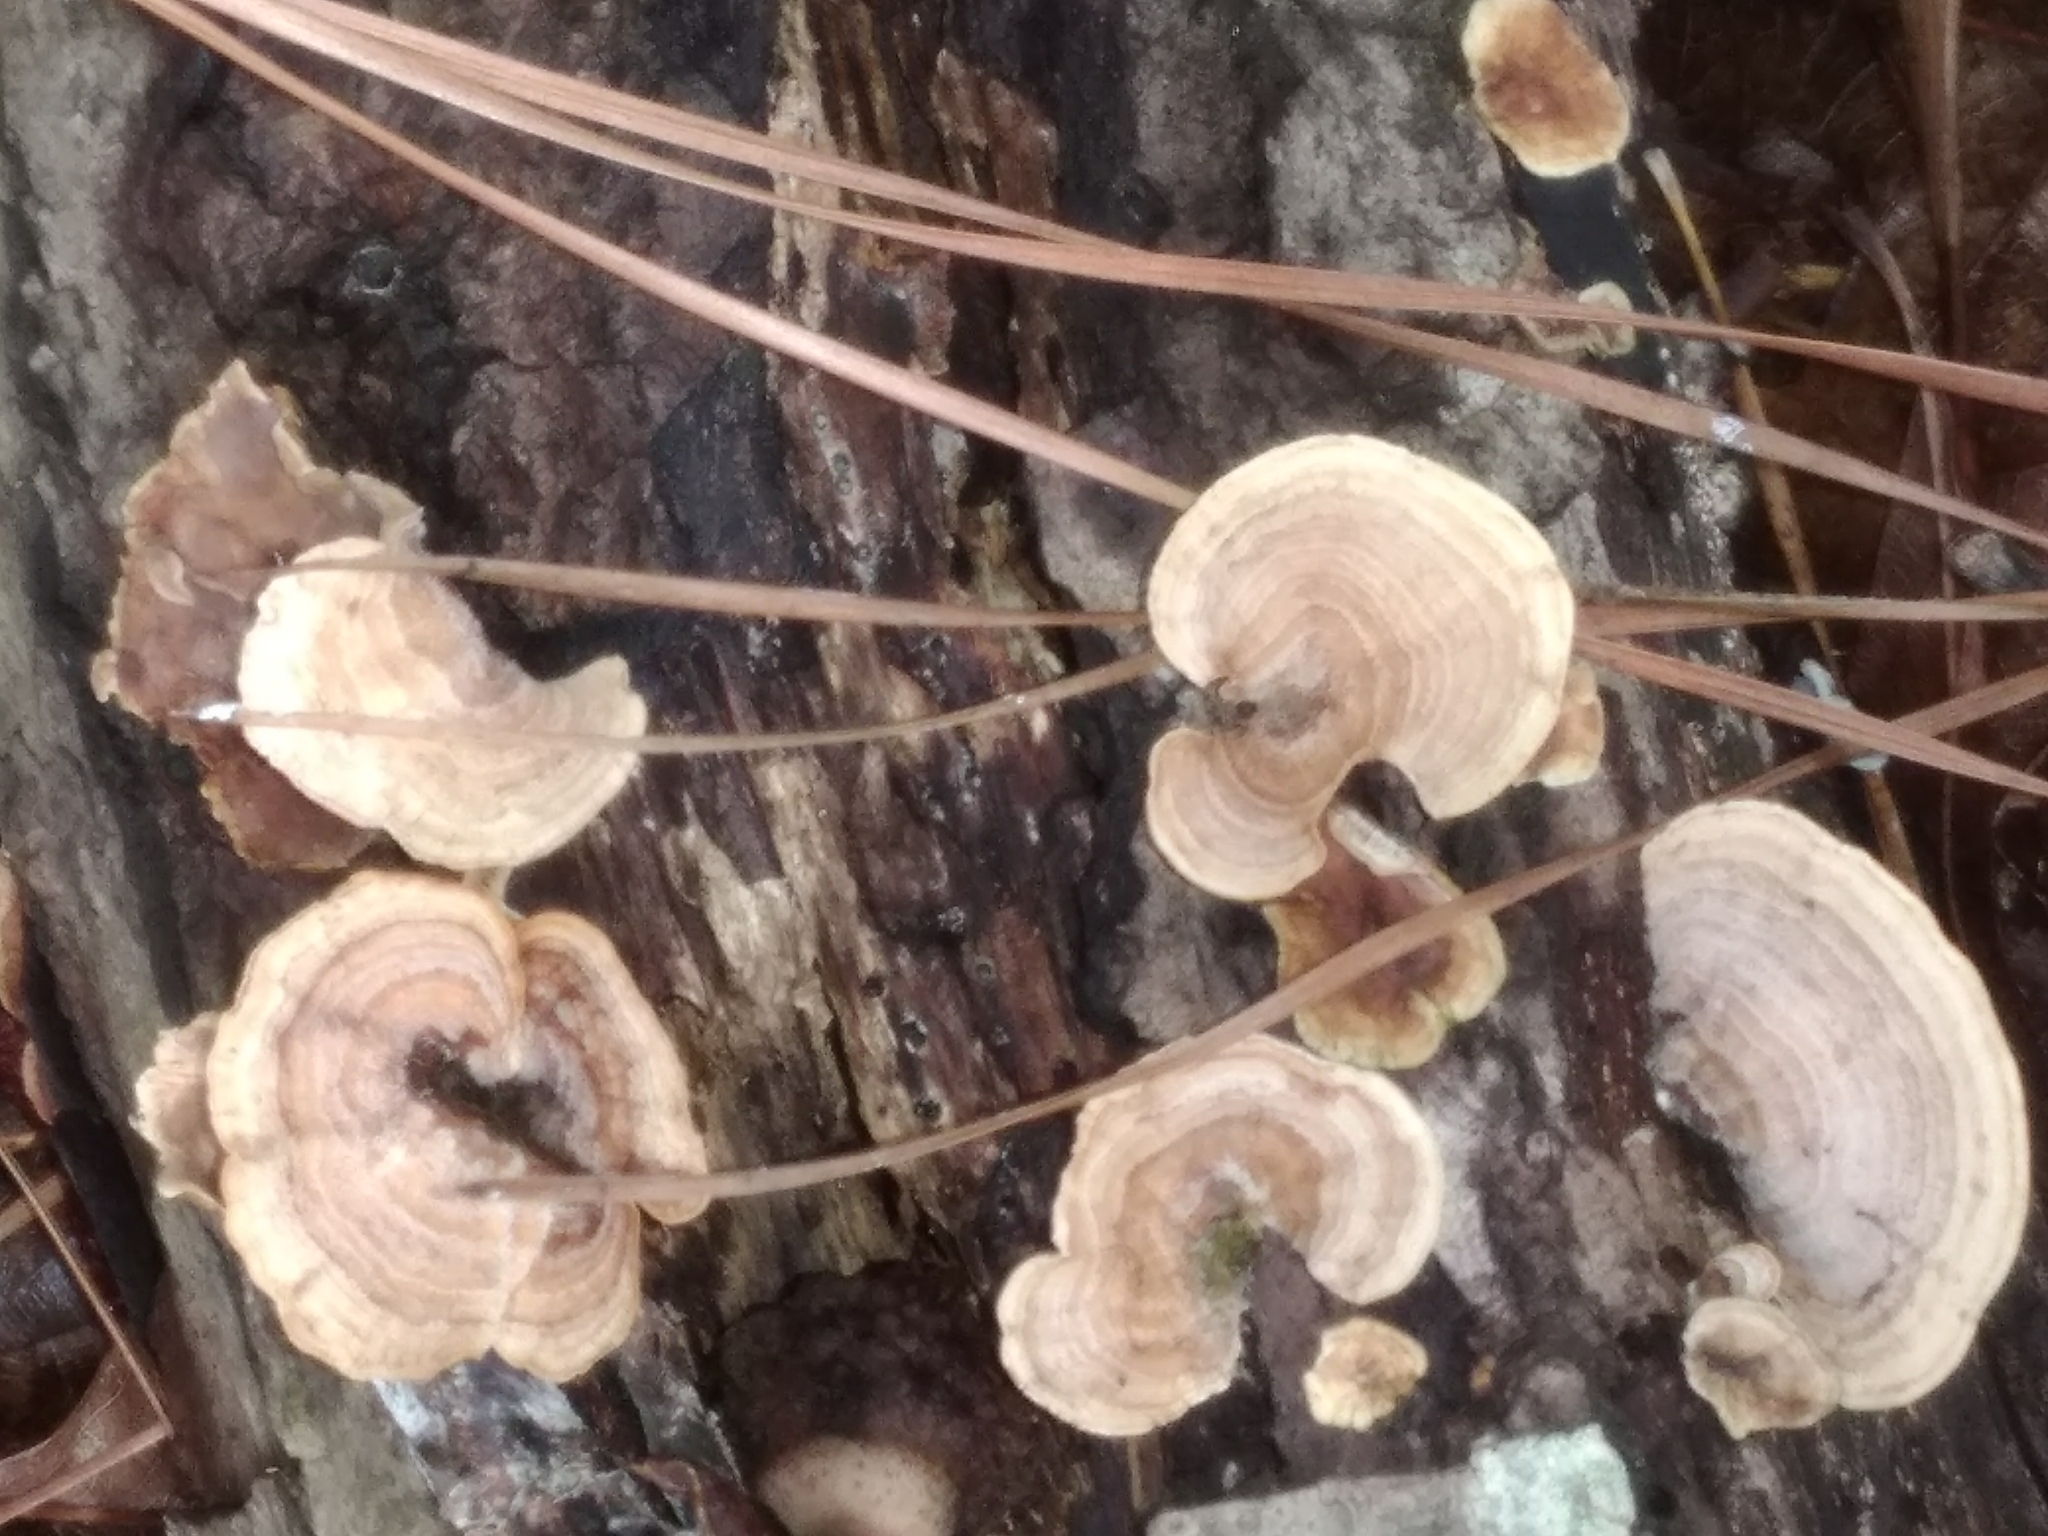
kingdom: Fungi
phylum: Basidiomycota
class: Agaricomycetes
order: Polyporales
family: Polyporaceae
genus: Trametes
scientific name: Trametes versicolor
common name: Turkeytail
